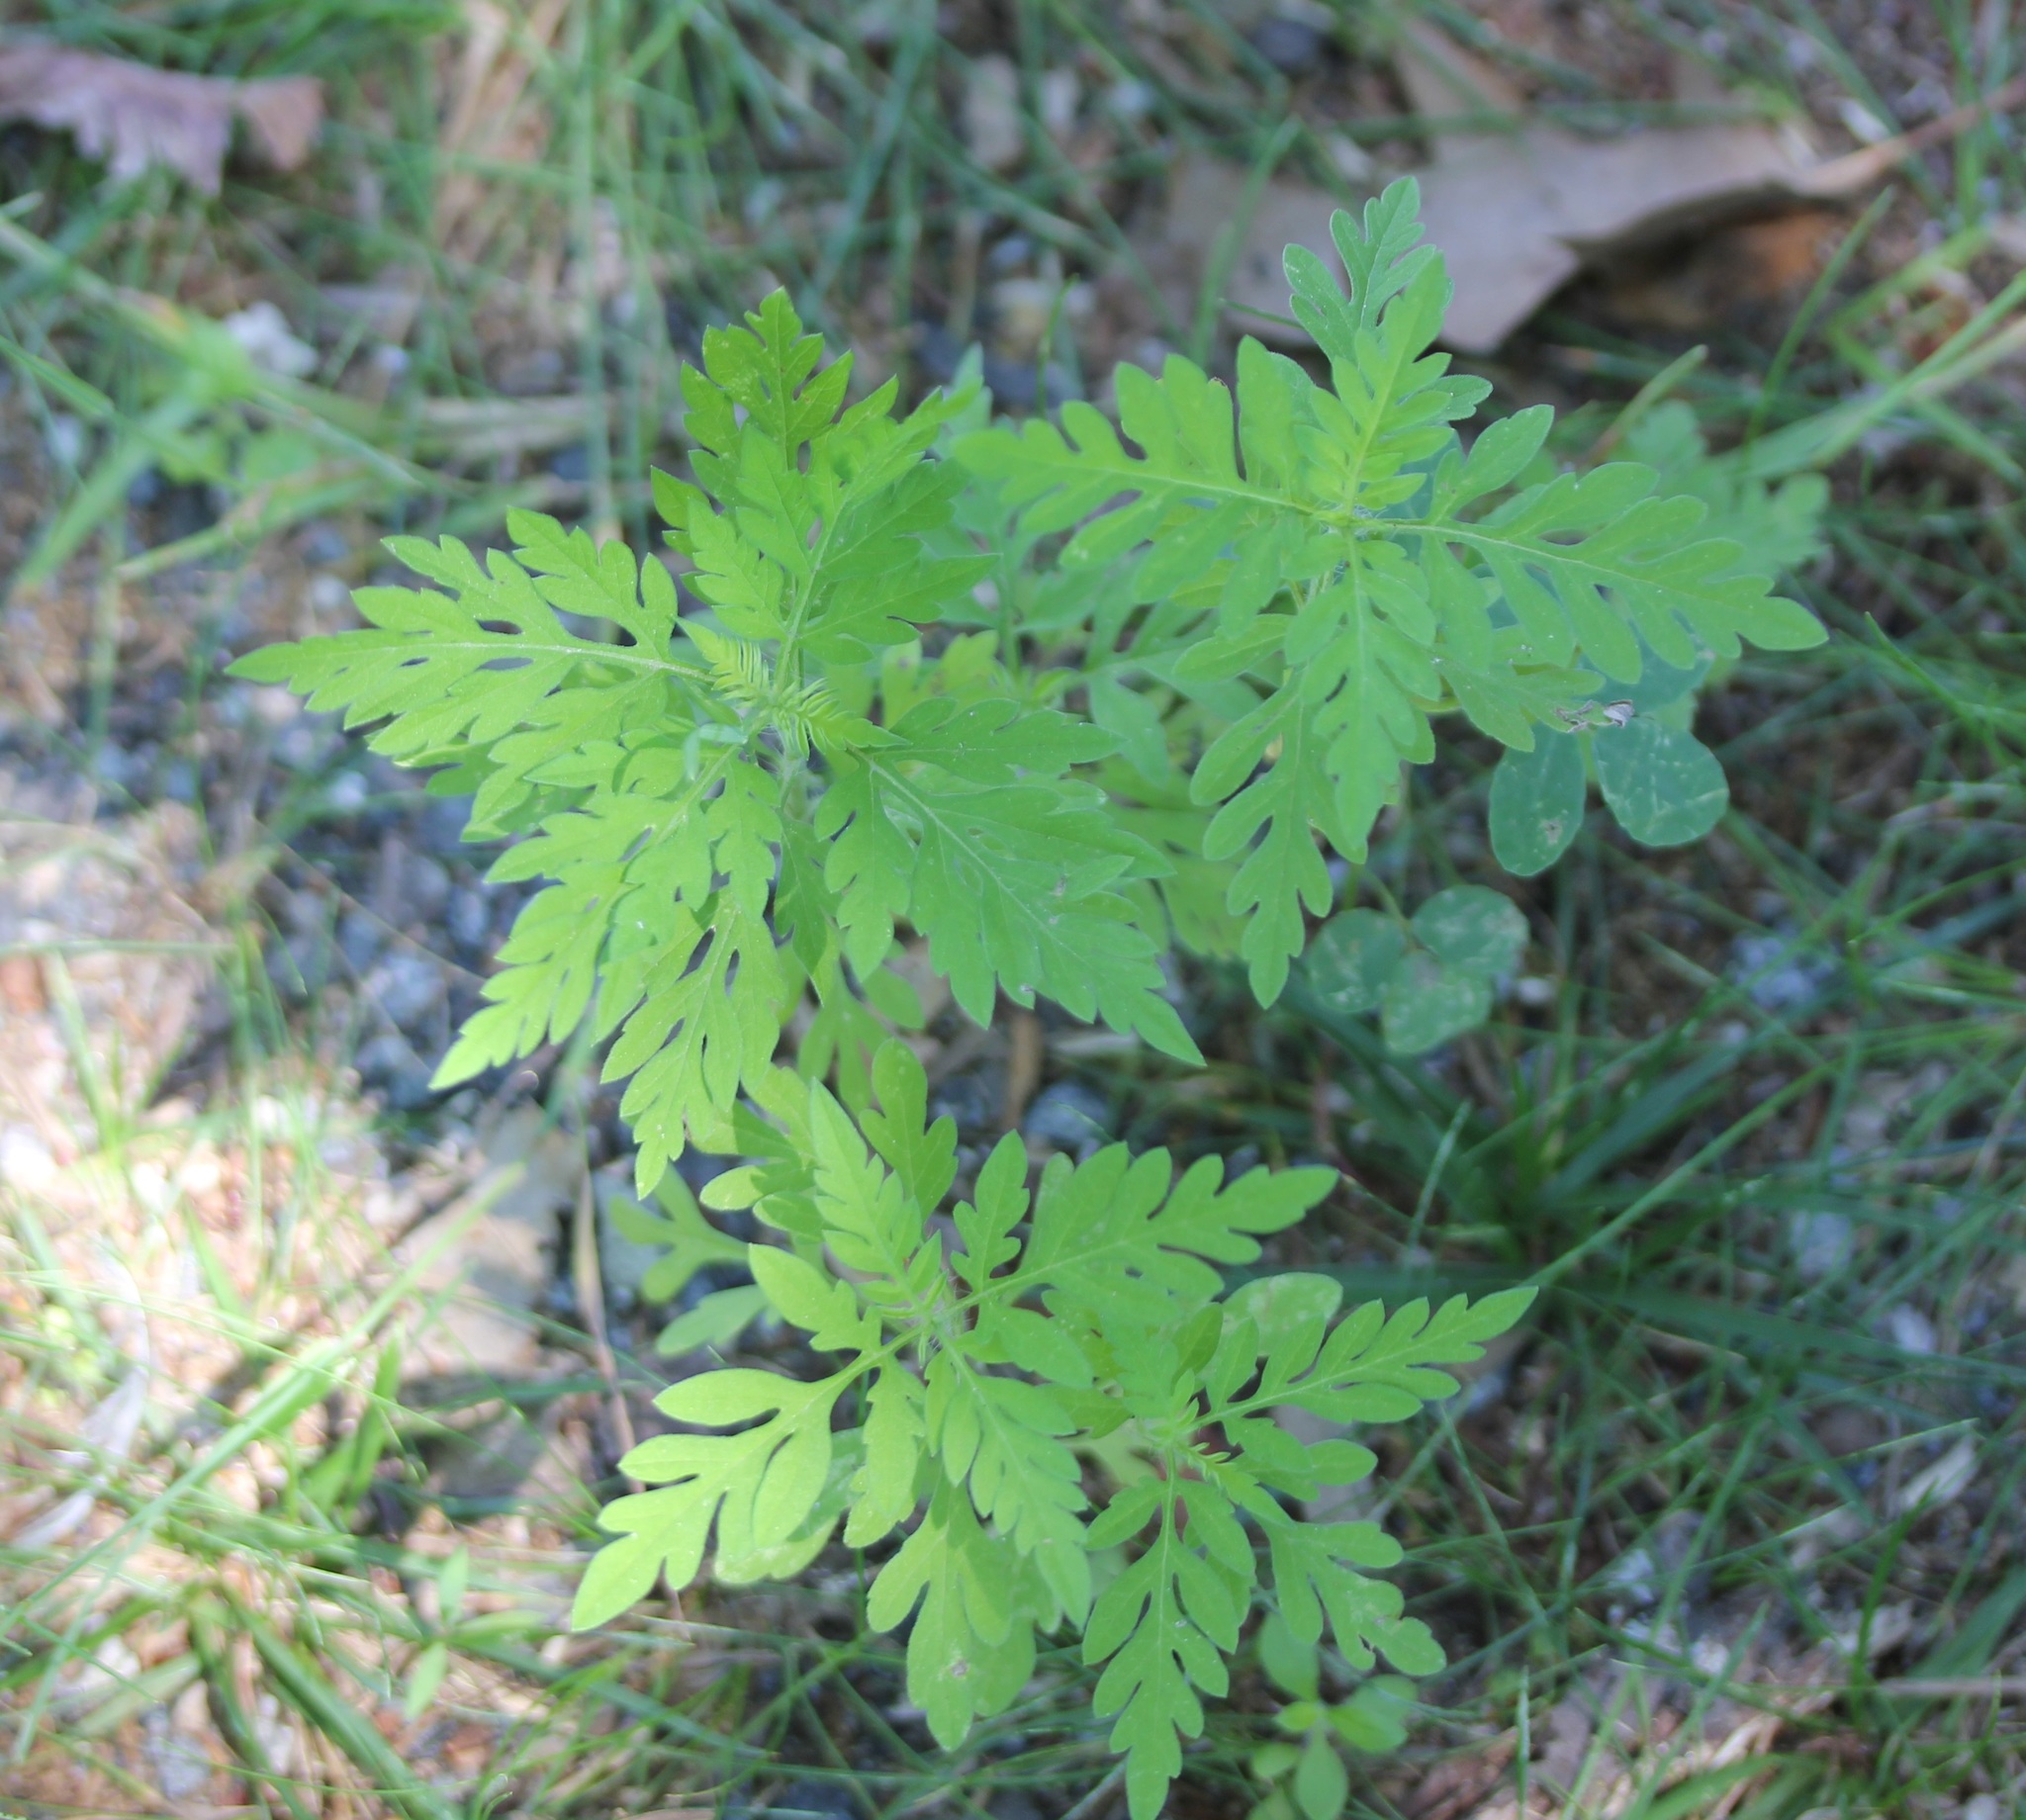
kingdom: Plantae
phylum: Tracheophyta
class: Magnoliopsida
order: Asterales
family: Asteraceae
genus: Ambrosia
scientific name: Ambrosia artemisiifolia
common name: Annual ragweed
